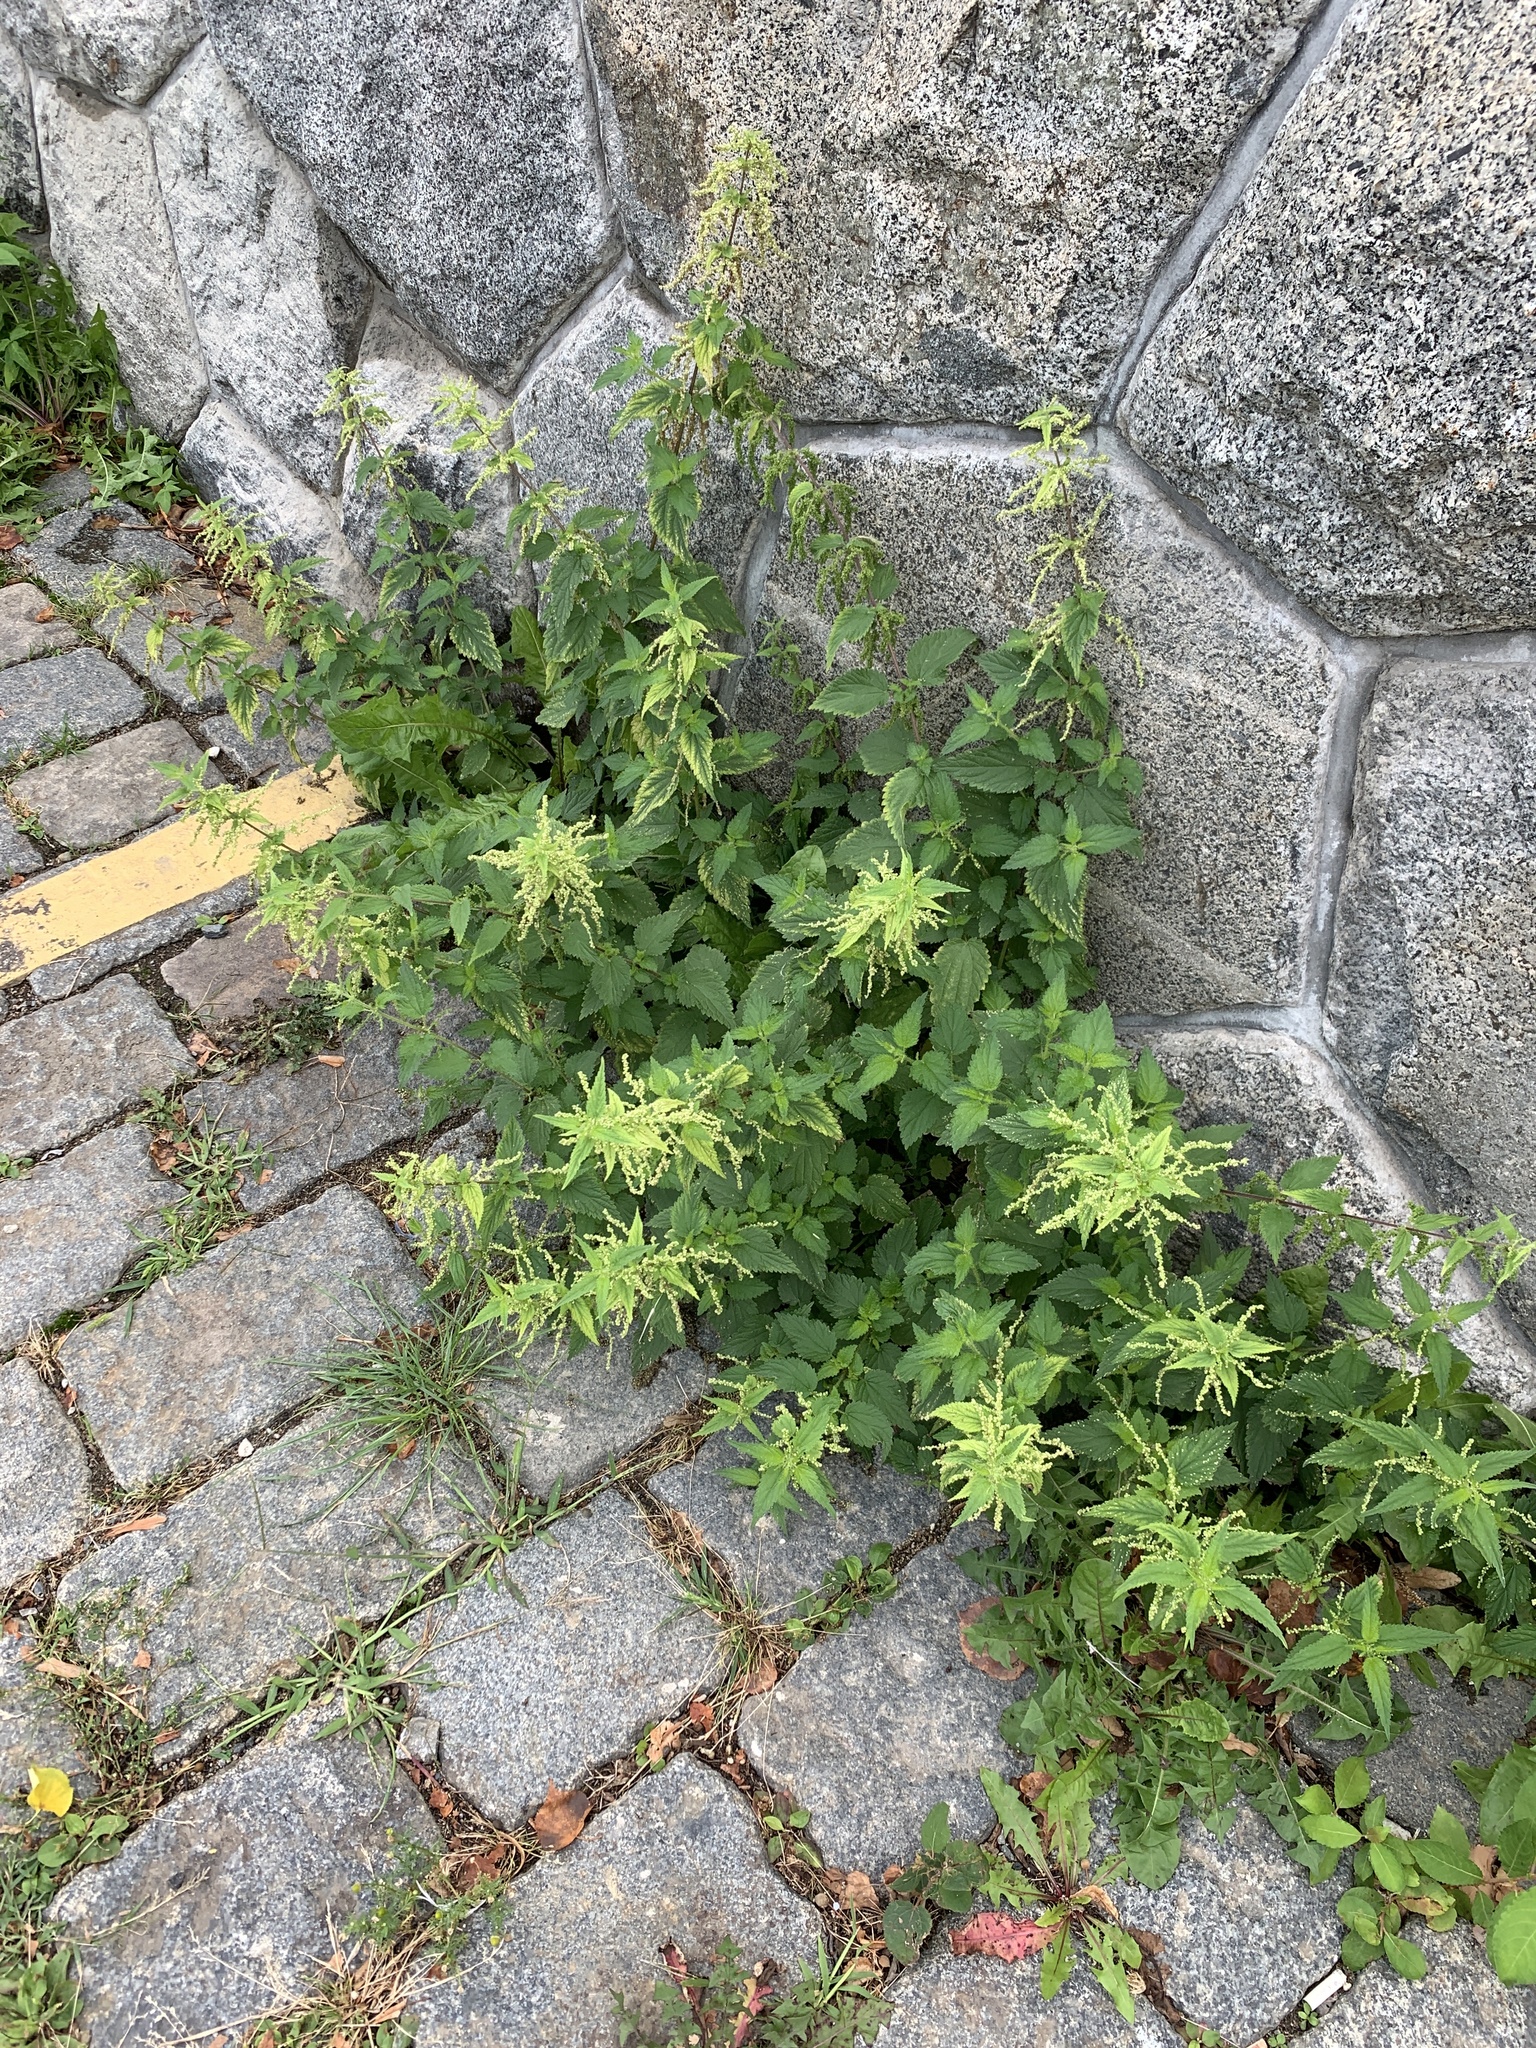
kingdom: Plantae
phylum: Tracheophyta
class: Magnoliopsida
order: Rosales
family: Urticaceae
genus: Urtica
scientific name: Urtica dioica
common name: Common nettle
